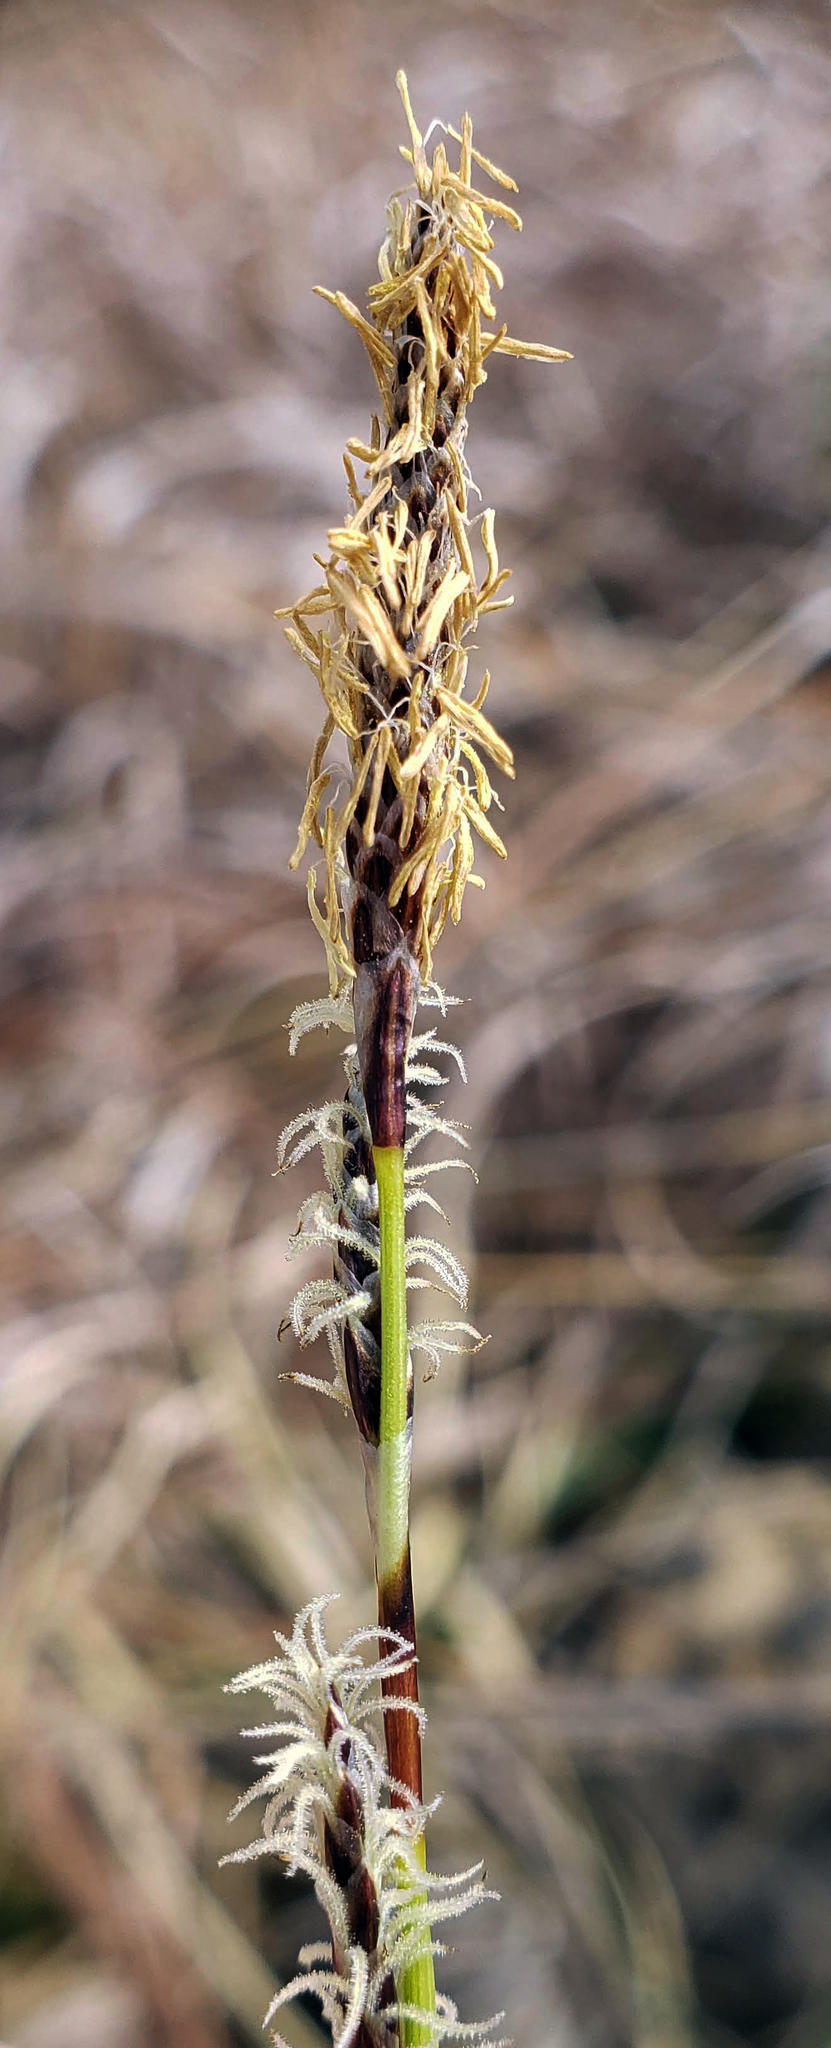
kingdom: Plantae
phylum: Tracheophyta
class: Liliopsida
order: Poales
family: Cyperaceae
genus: Carex
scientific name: Carex richardsonii
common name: Prairie hummock sedge
